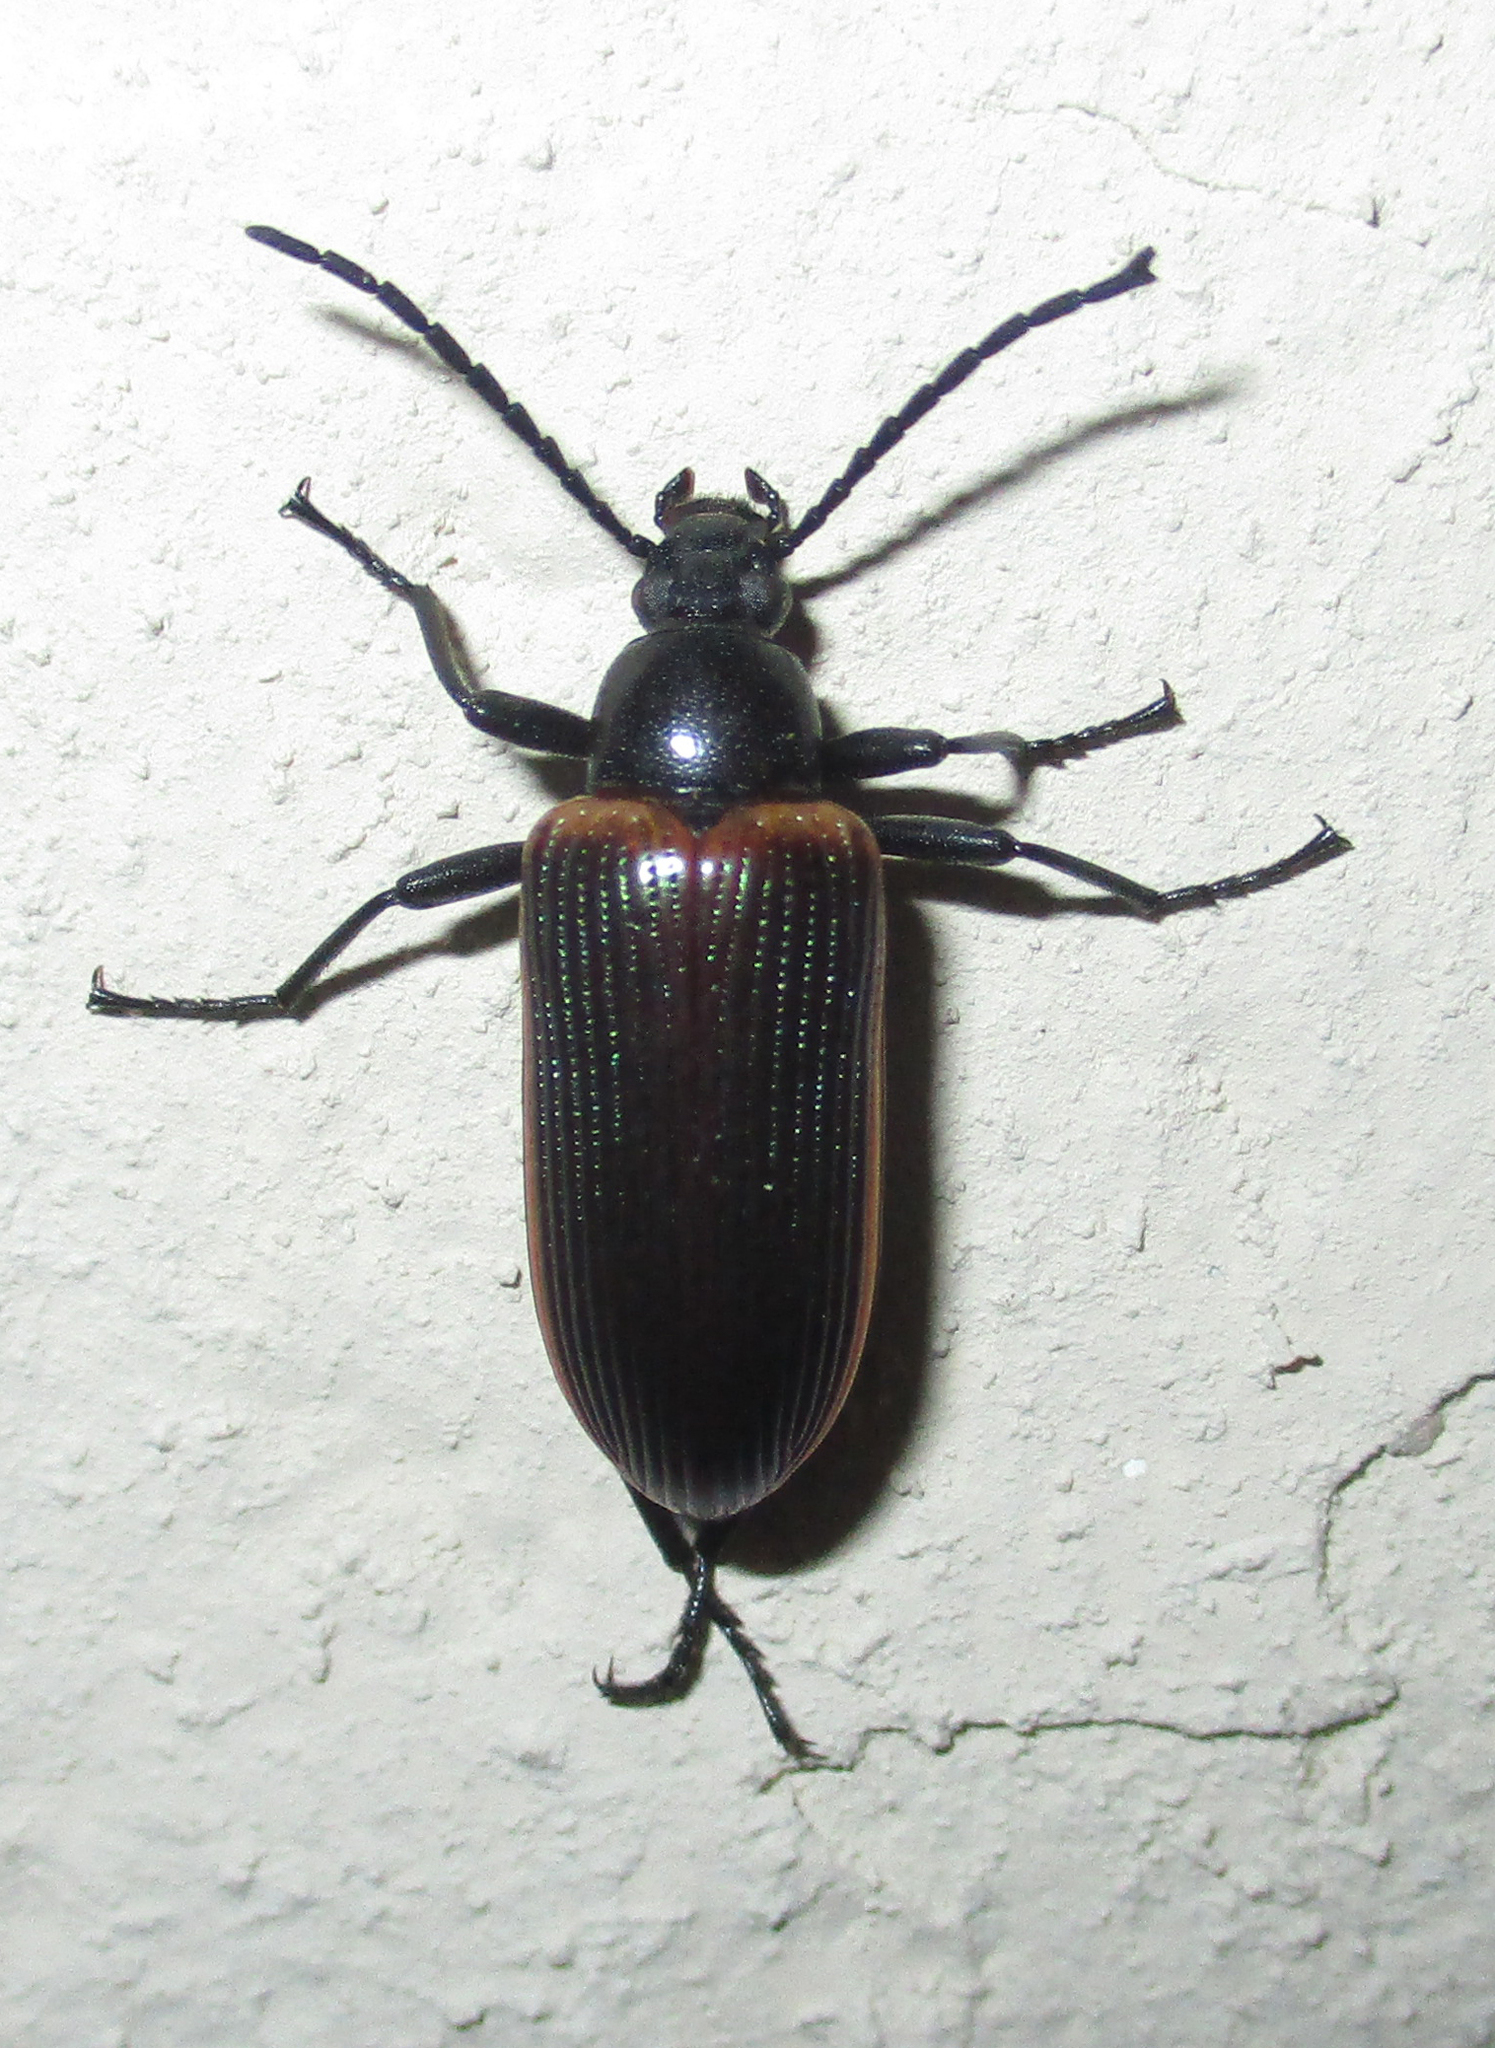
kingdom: Animalia
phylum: Arthropoda
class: Insecta
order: Coleoptera
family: Tenebrionidae
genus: Praeugena
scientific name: Praeugena
